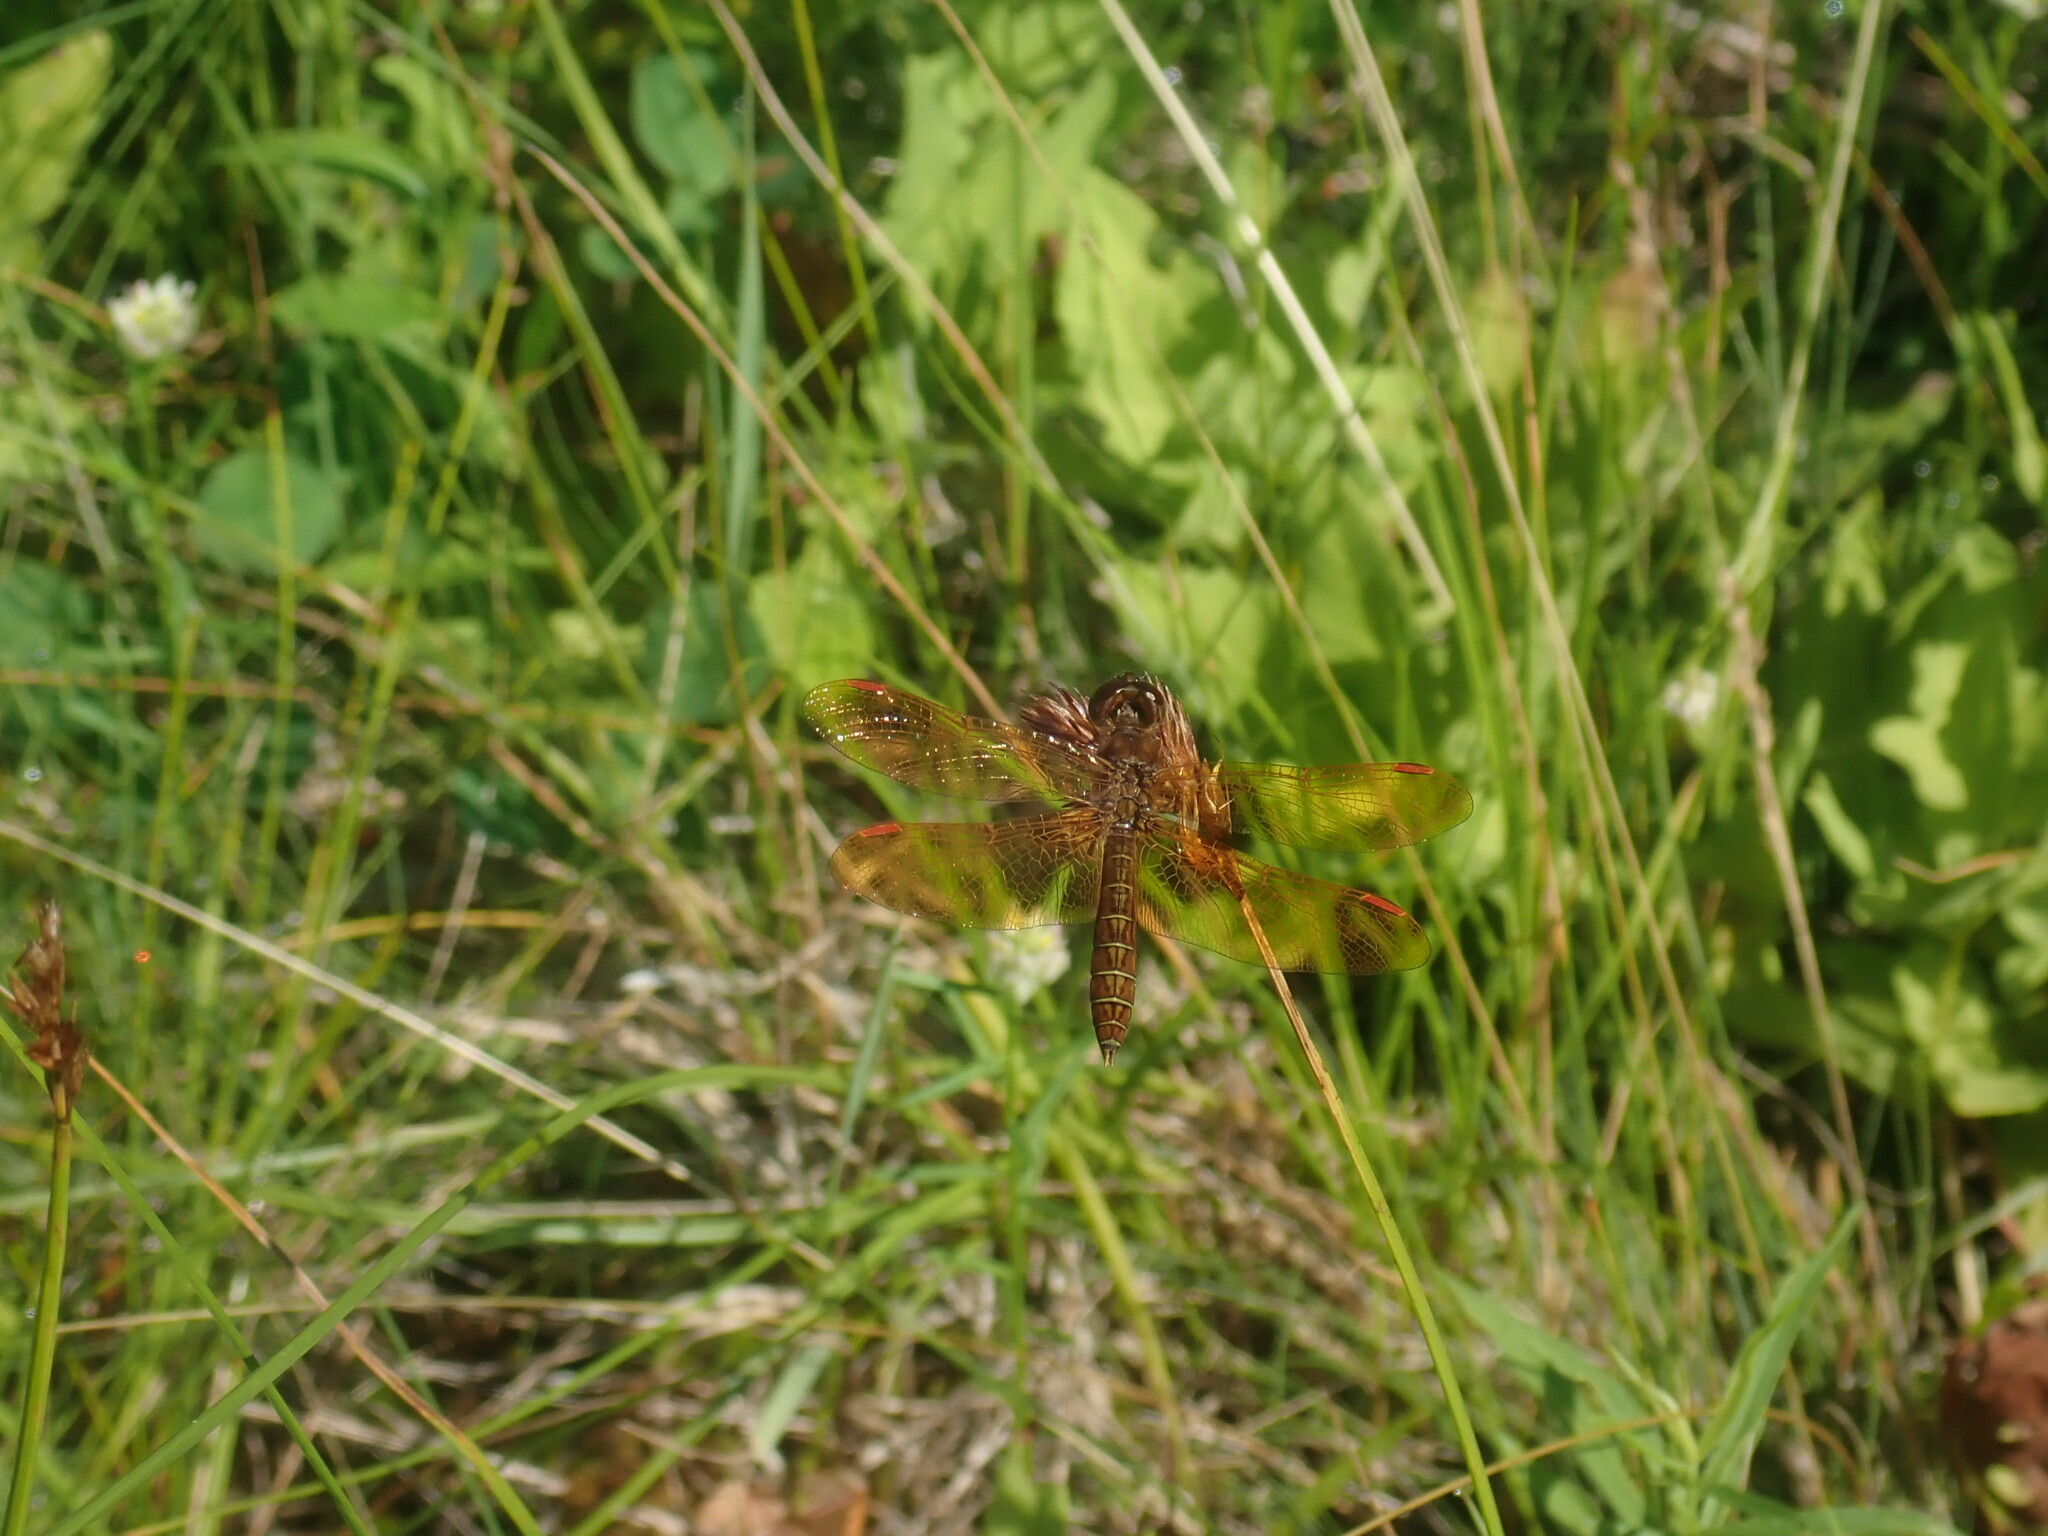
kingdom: Animalia
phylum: Arthropoda
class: Insecta
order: Odonata
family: Libellulidae
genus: Perithemis
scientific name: Perithemis tenera
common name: Eastern amberwing
